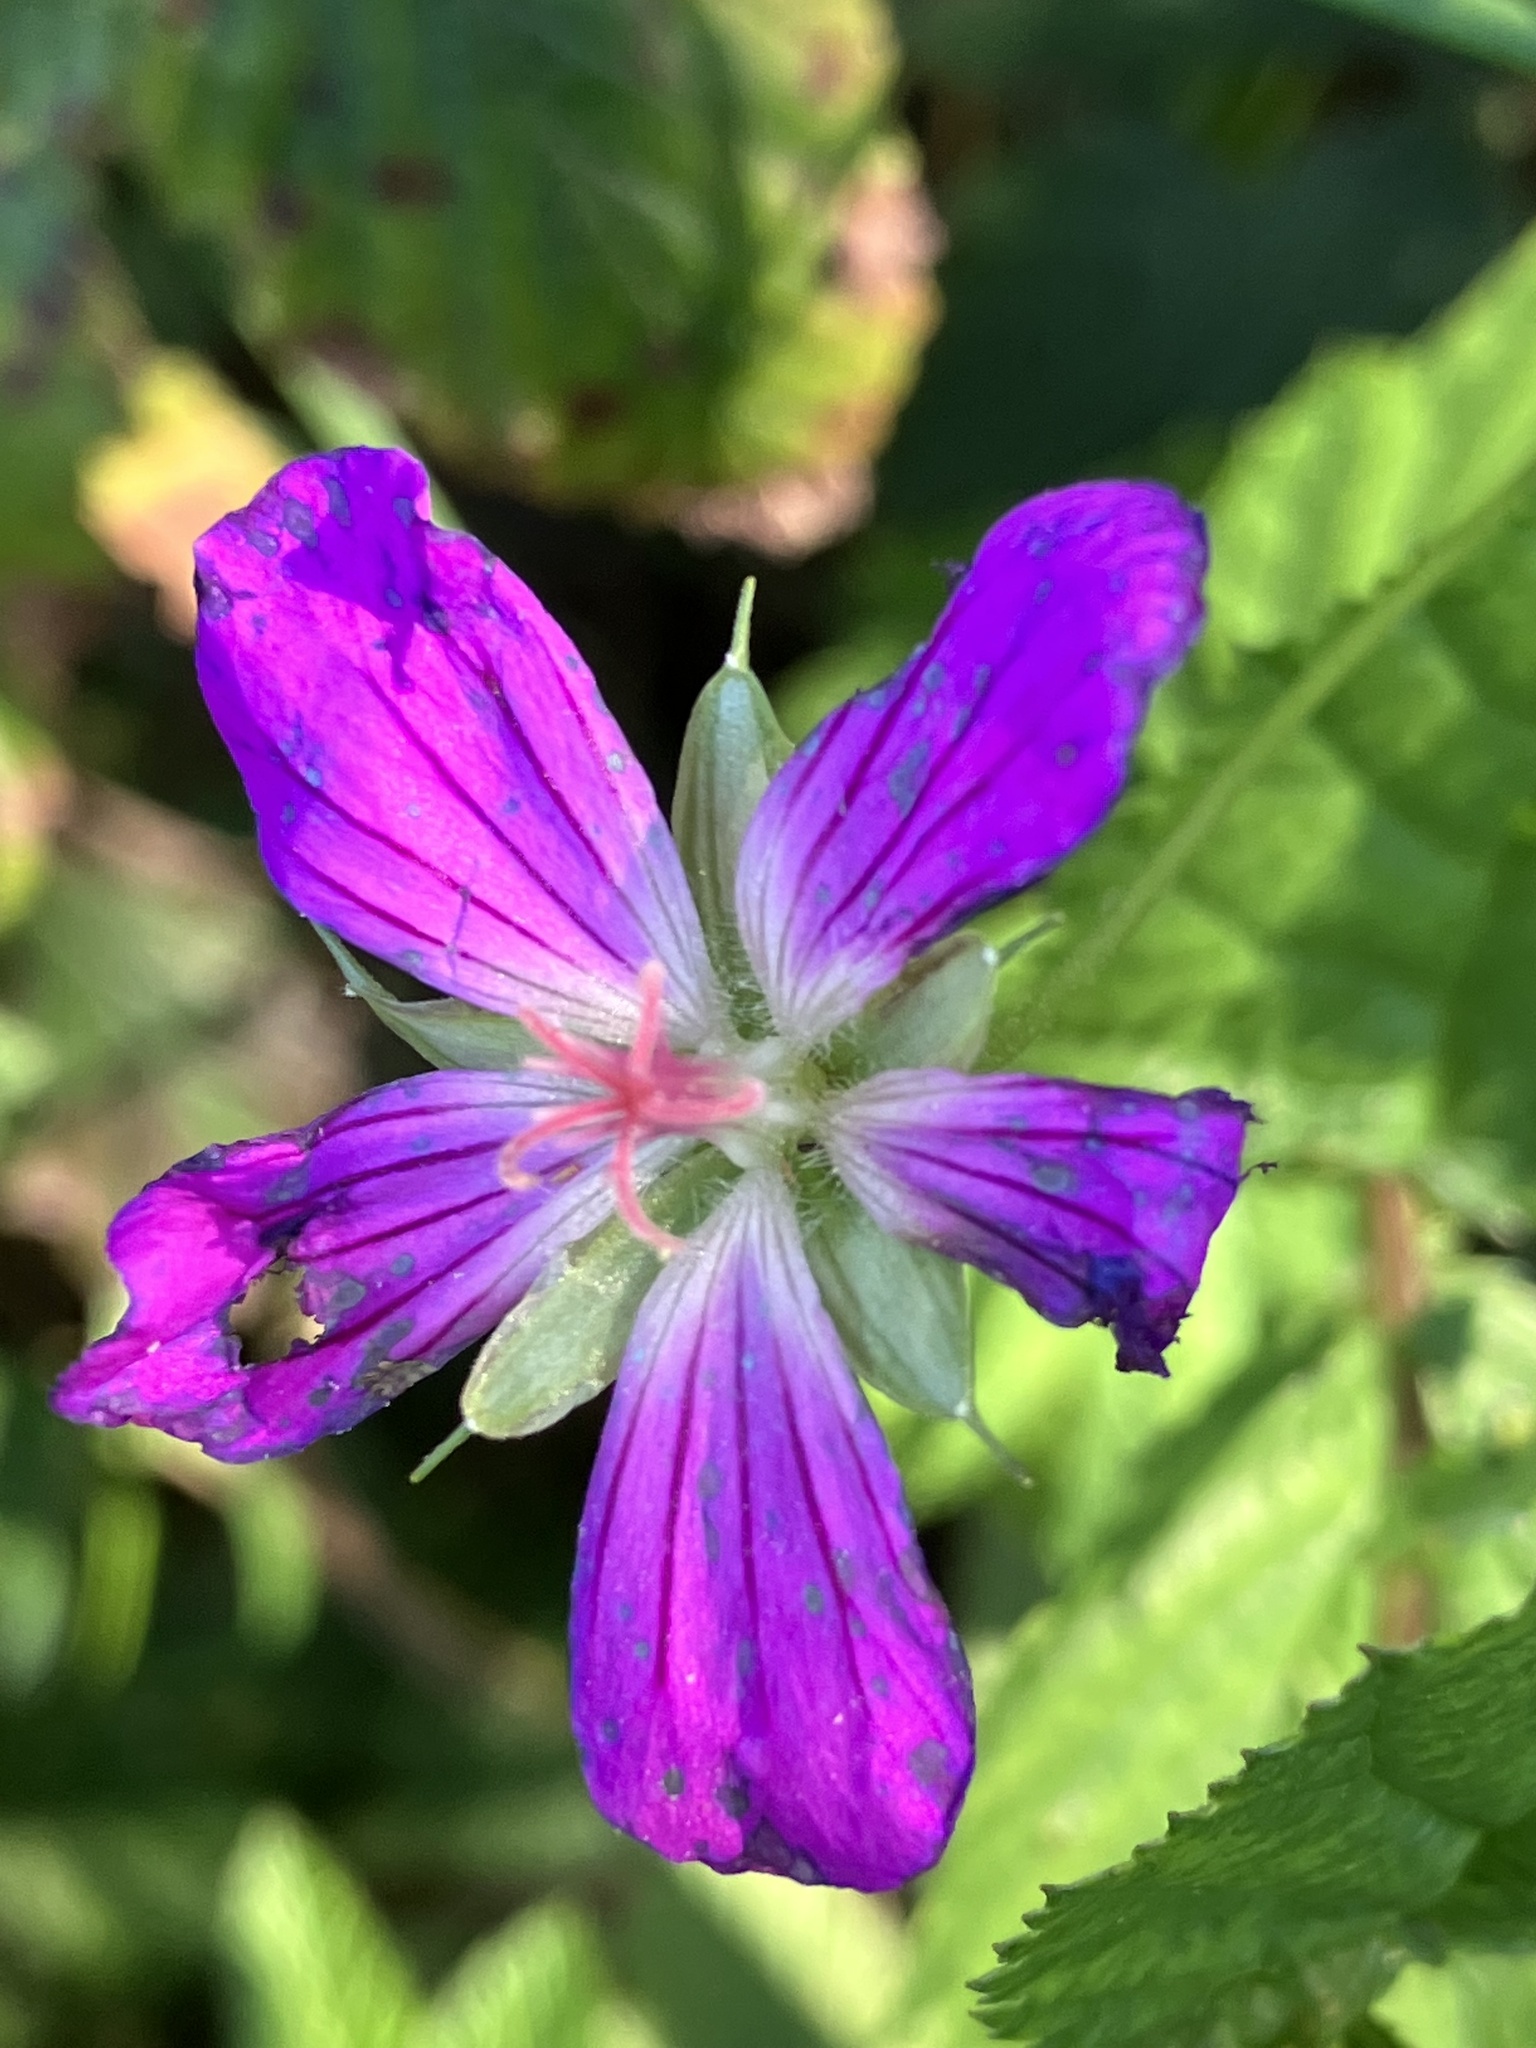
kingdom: Plantae
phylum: Tracheophyta
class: Magnoliopsida
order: Geraniales
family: Geraniaceae
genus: Geranium
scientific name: Geranium palustre
